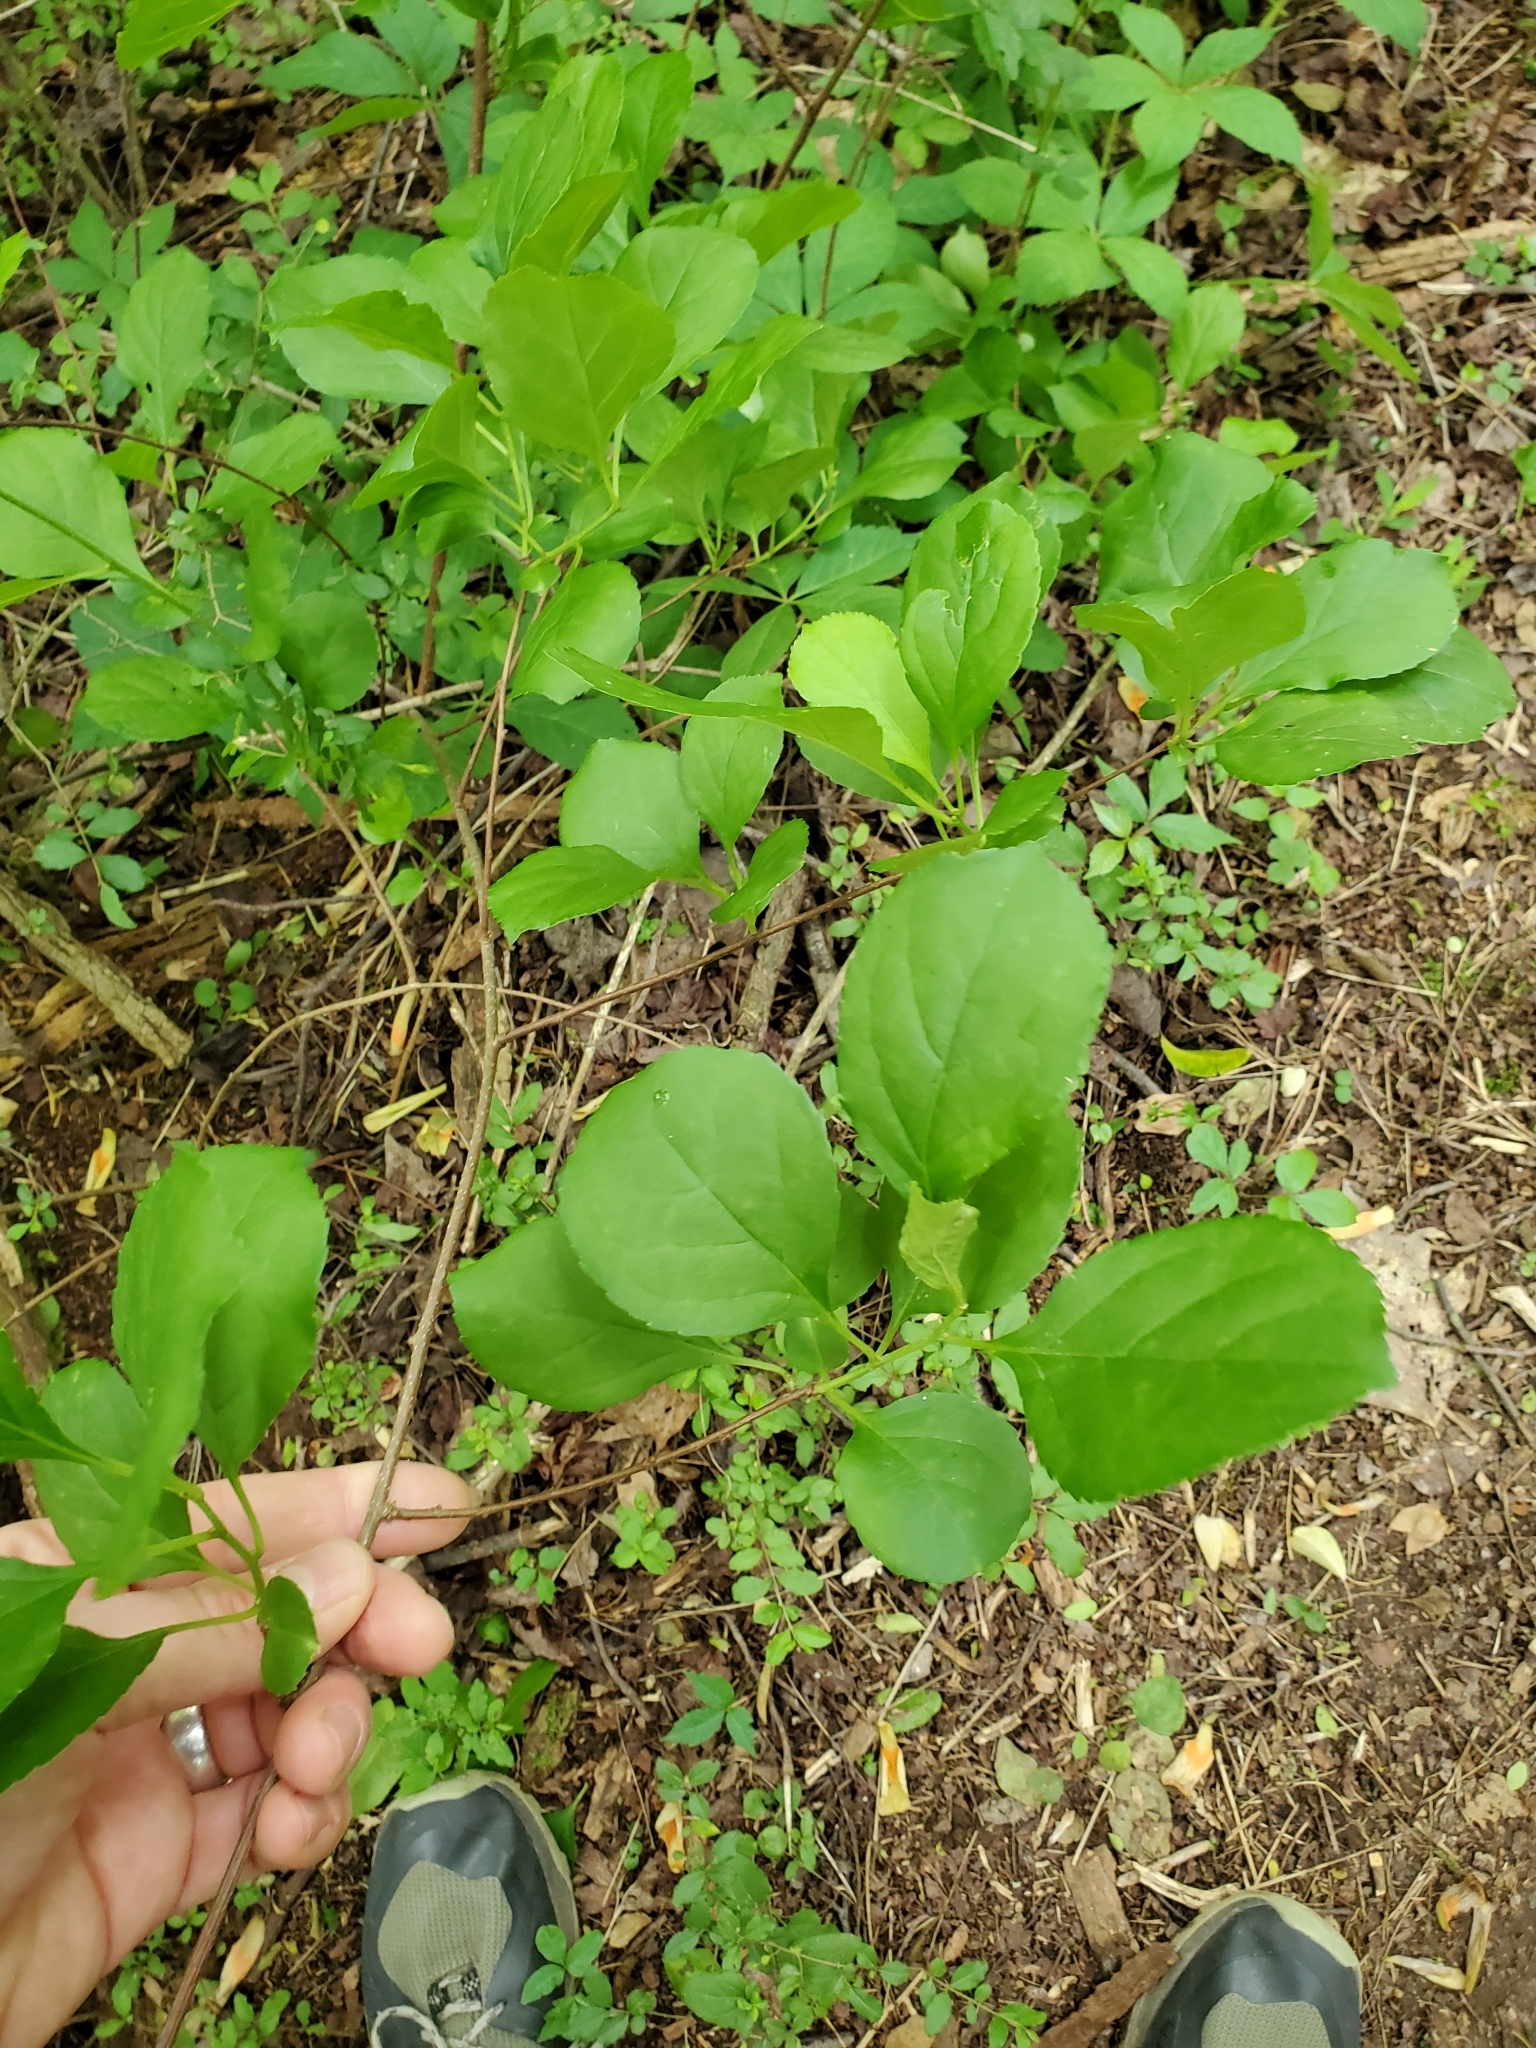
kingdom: Plantae
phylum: Tracheophyta
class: Magnoliopsida
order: Celastrales
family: Celastraceae
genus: Celastrus
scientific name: Celastrus orbiculatus
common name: Oriental bittersweet
